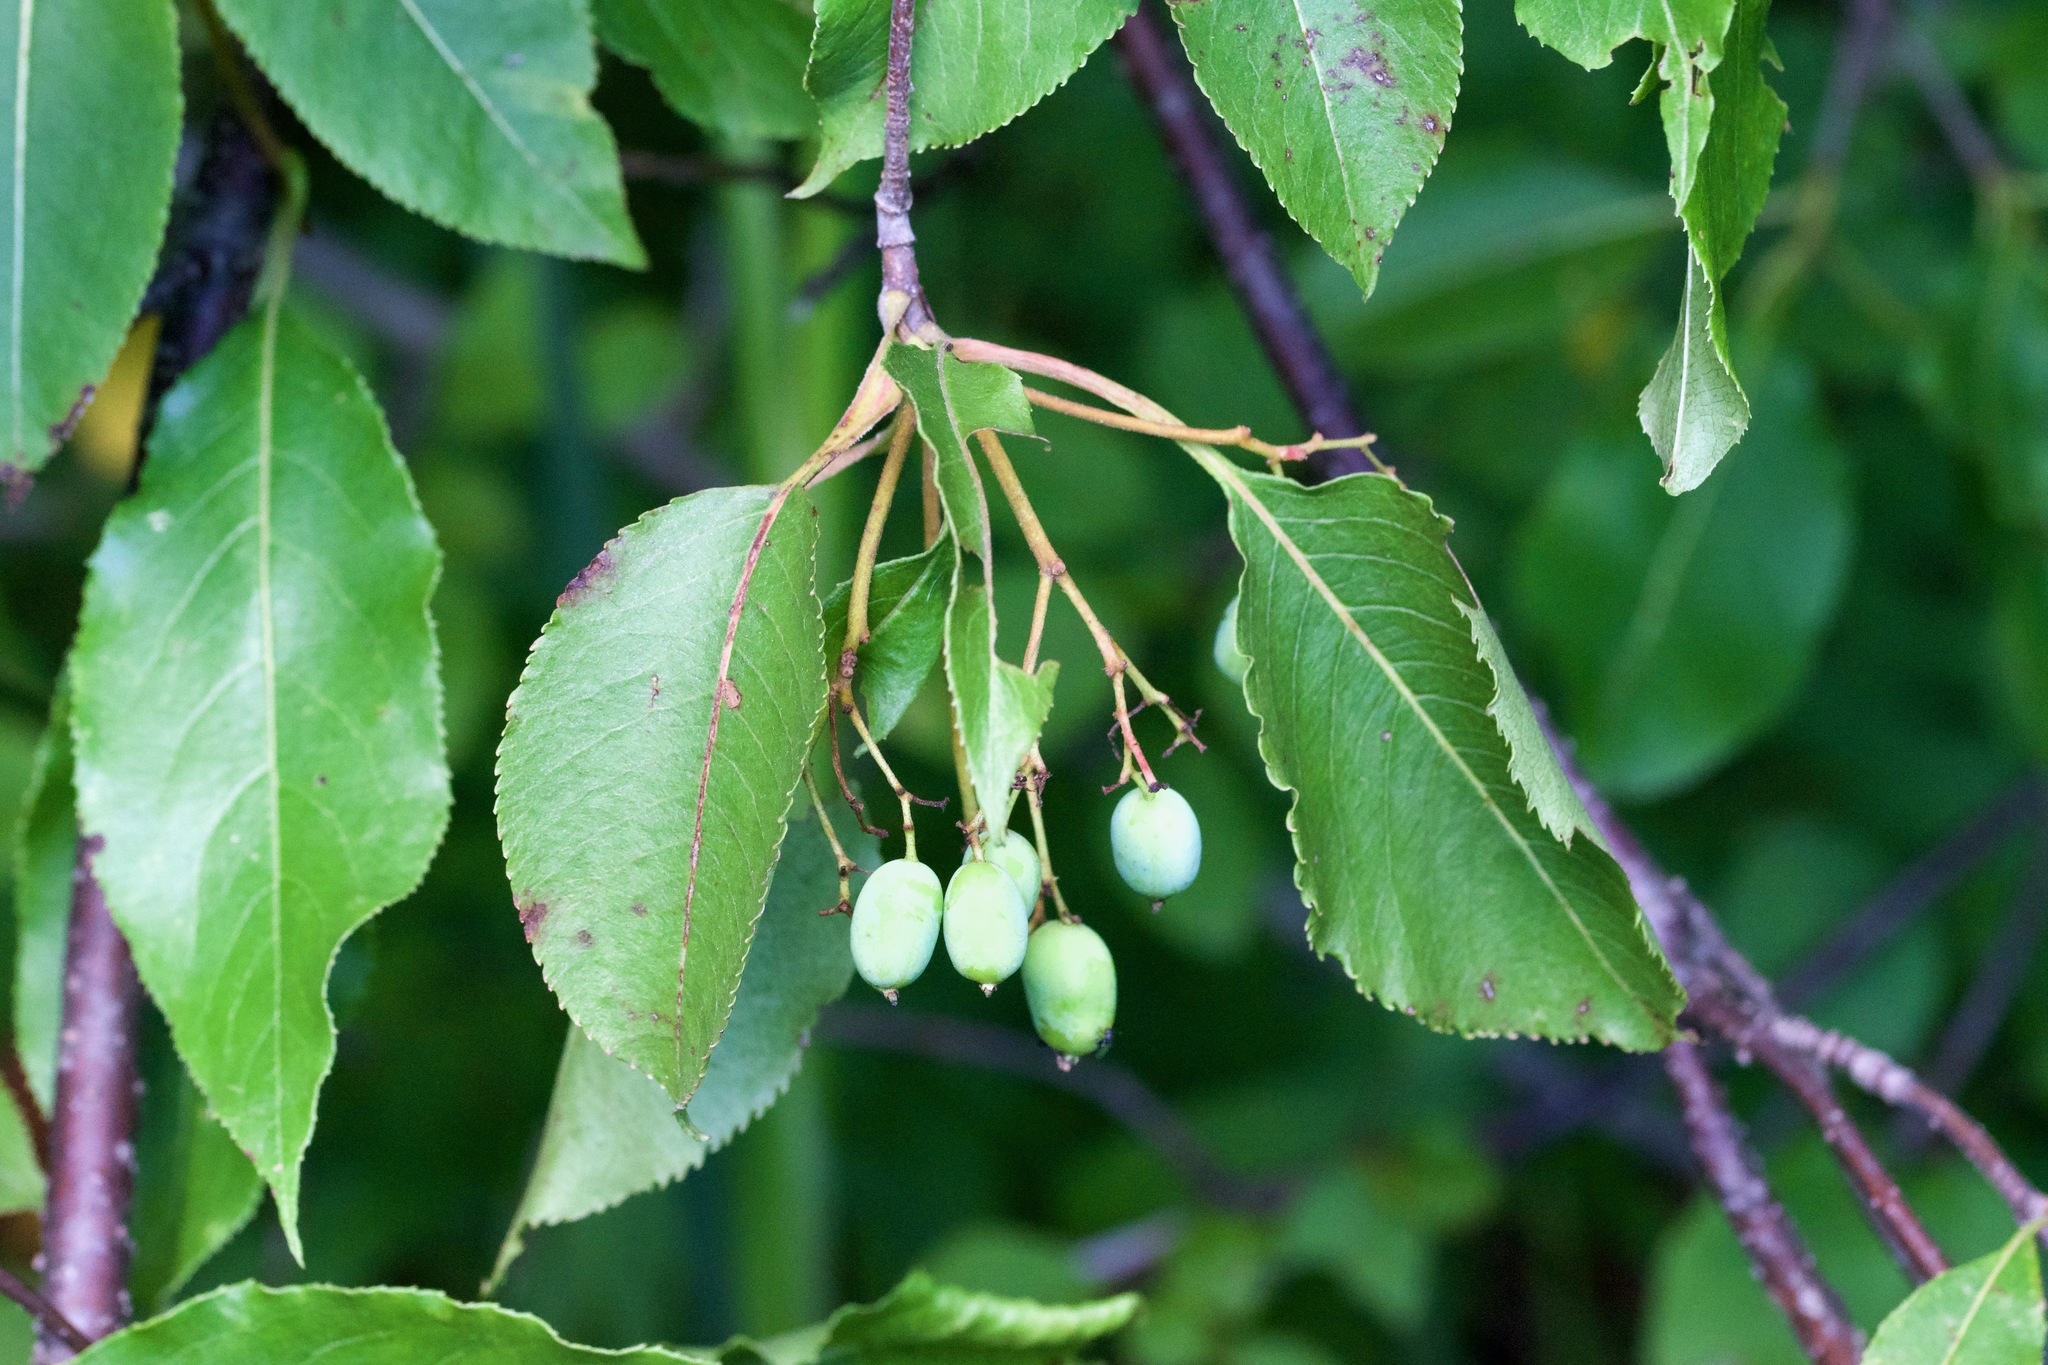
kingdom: Plantae
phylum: Tracheophyta
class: Magnoliopsida
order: Dipsacales
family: Viburnaceae
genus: Viburnum
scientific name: Viburnum lentago
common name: Black haw
